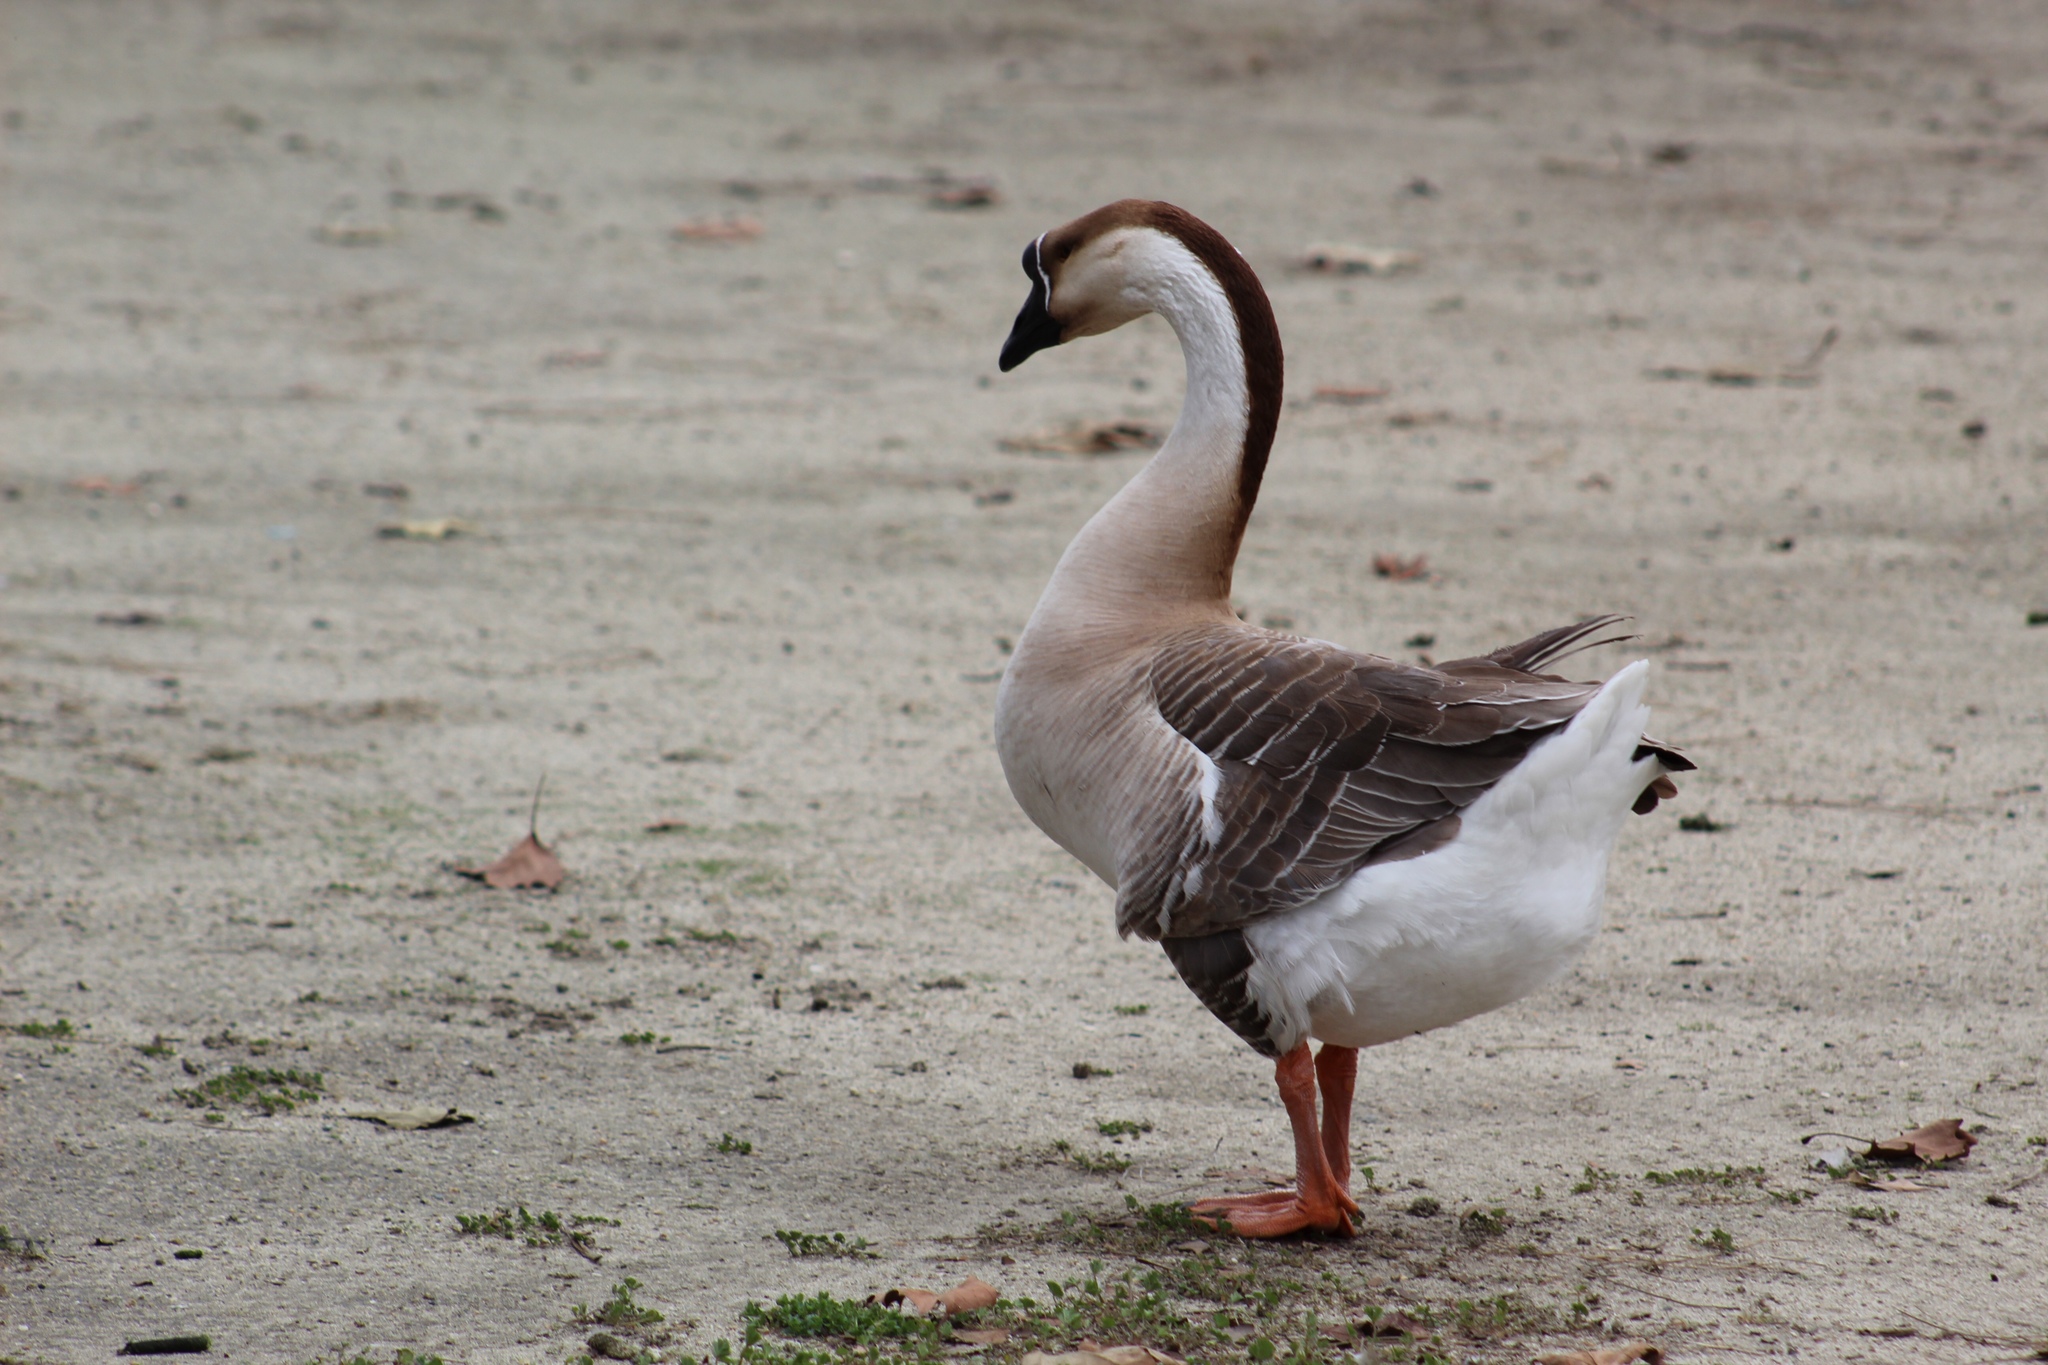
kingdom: Animalia
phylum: Chordata
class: Aves
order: Anseriformes
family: Anatidae
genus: Anser
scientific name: Anser cygnoides
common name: Swan goose
